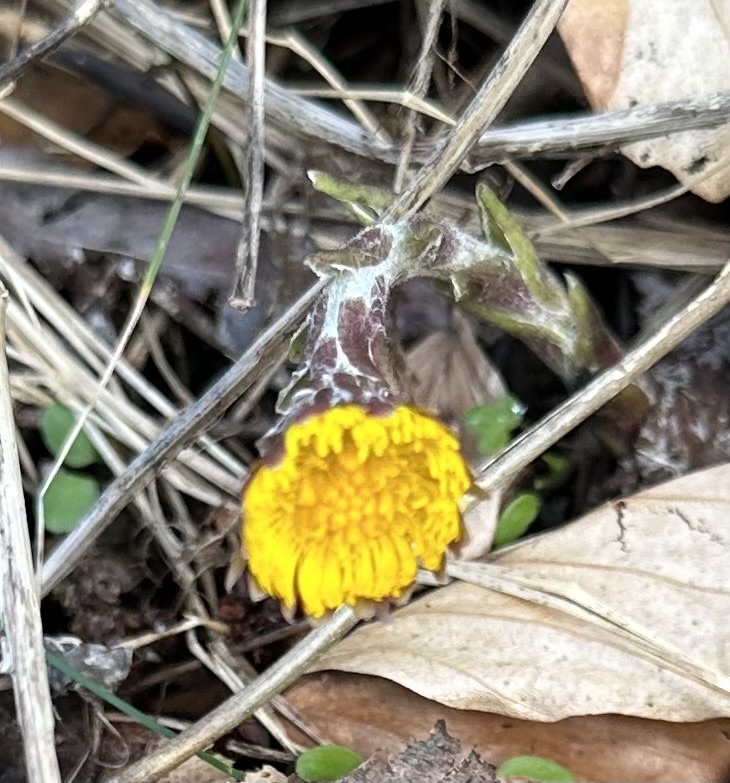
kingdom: Plantae
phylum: Tracheophyta
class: Magnoliopsida
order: Asterales
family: Asteraceae
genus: Tussilago
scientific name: Tussilago farfara
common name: Coltsfoot
